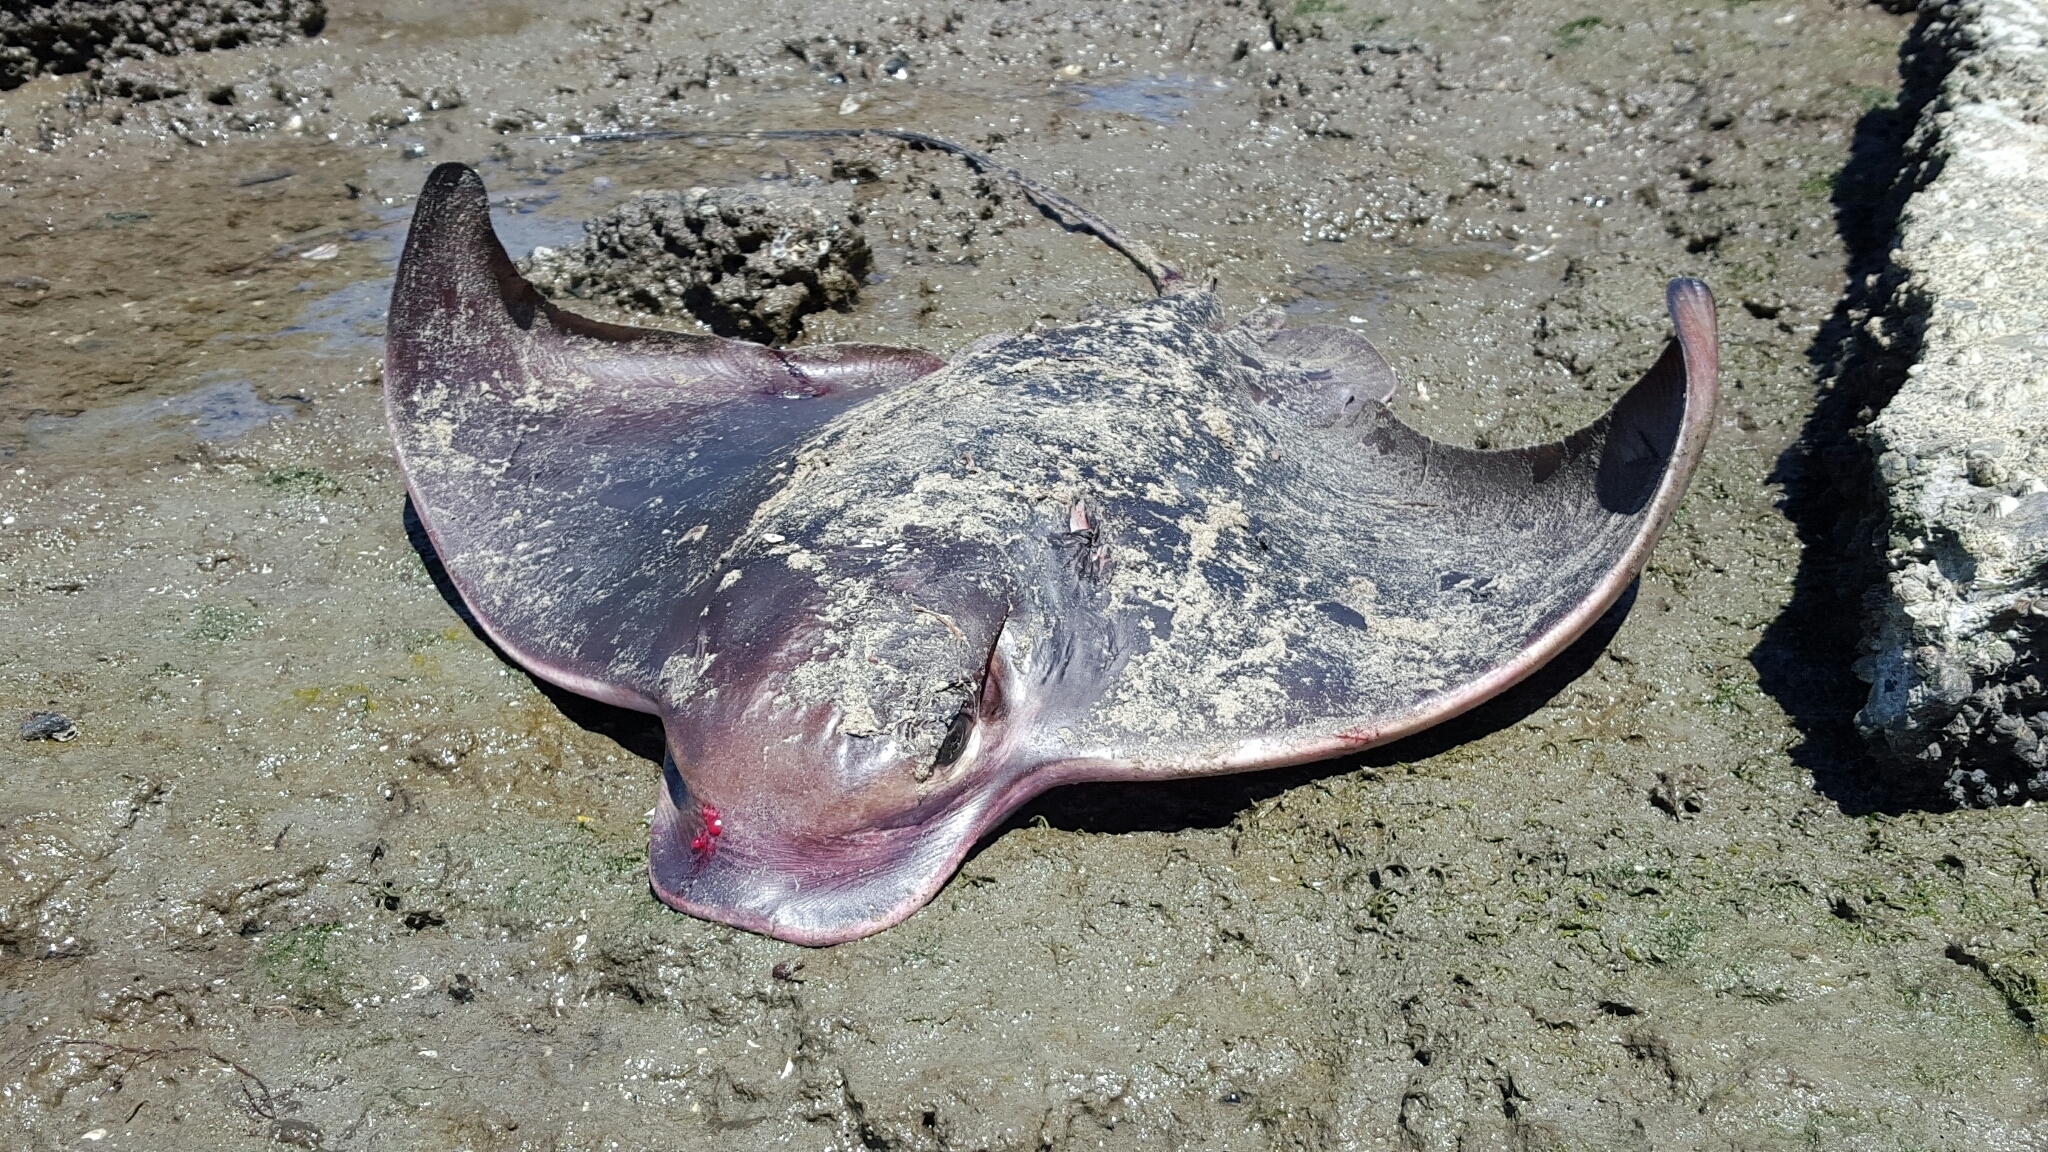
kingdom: Animalia
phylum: Chordata
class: Elasmobranchii
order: Myliobatiformes
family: Myliobatidae
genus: Myliobatis
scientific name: Myliobatis californica
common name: Bat ray
